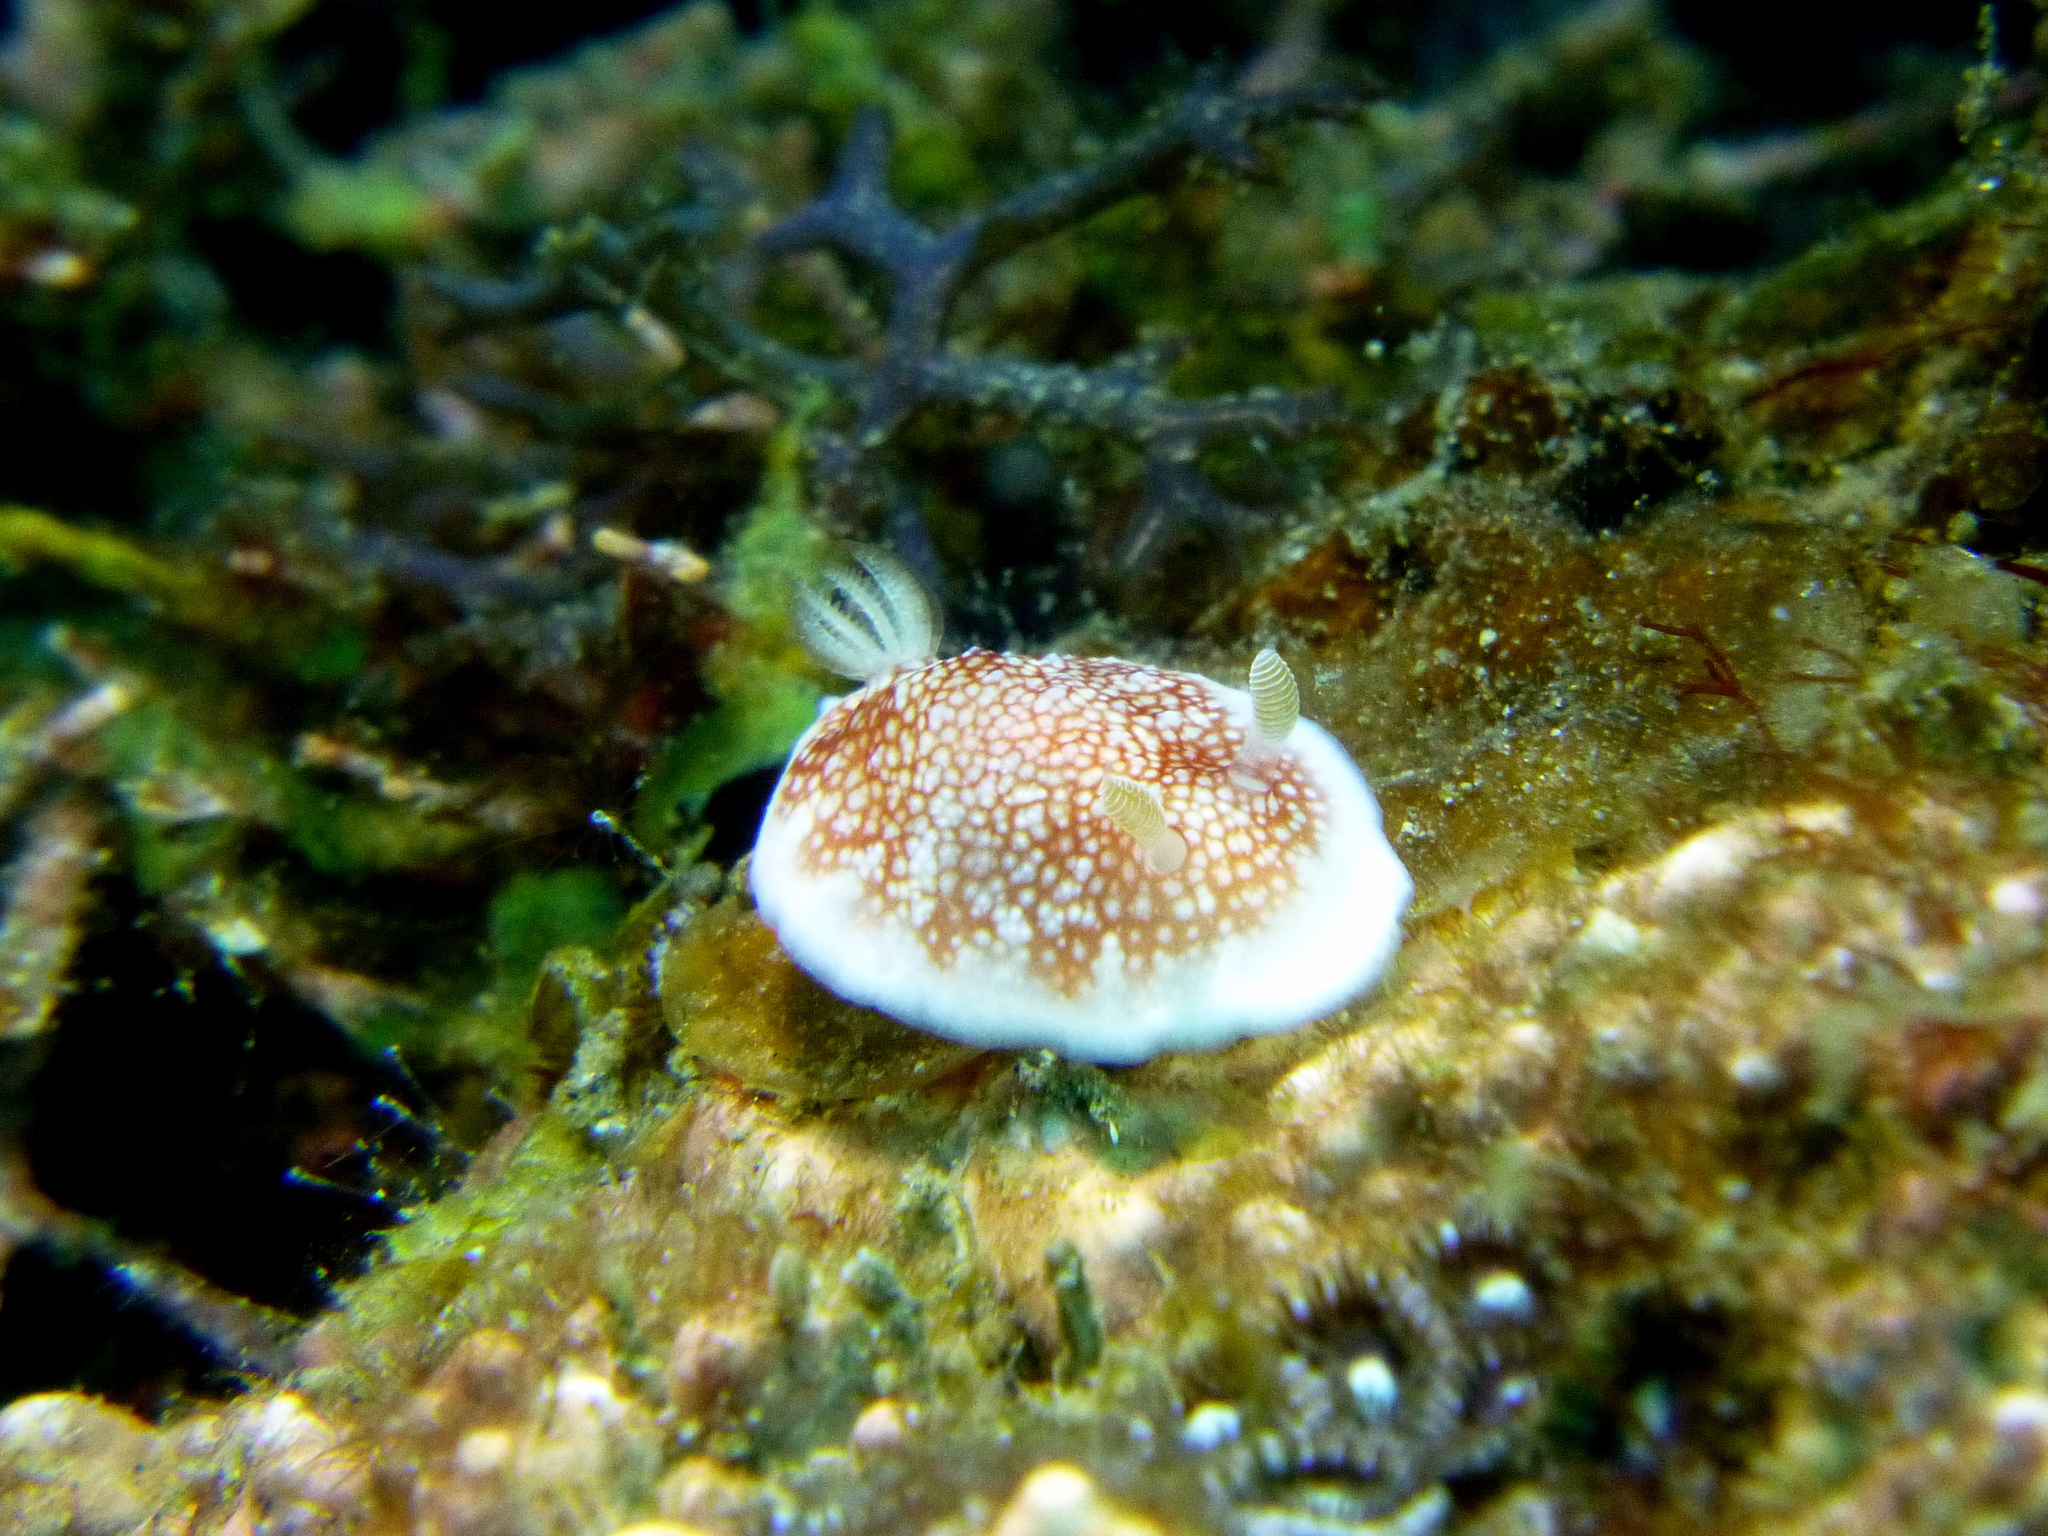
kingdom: Animalia
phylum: Mollusca
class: Gastropoda
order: Nudibranchia
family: Chromodorididae
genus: Goniobranchus
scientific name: Goniobranchus reticulatus
